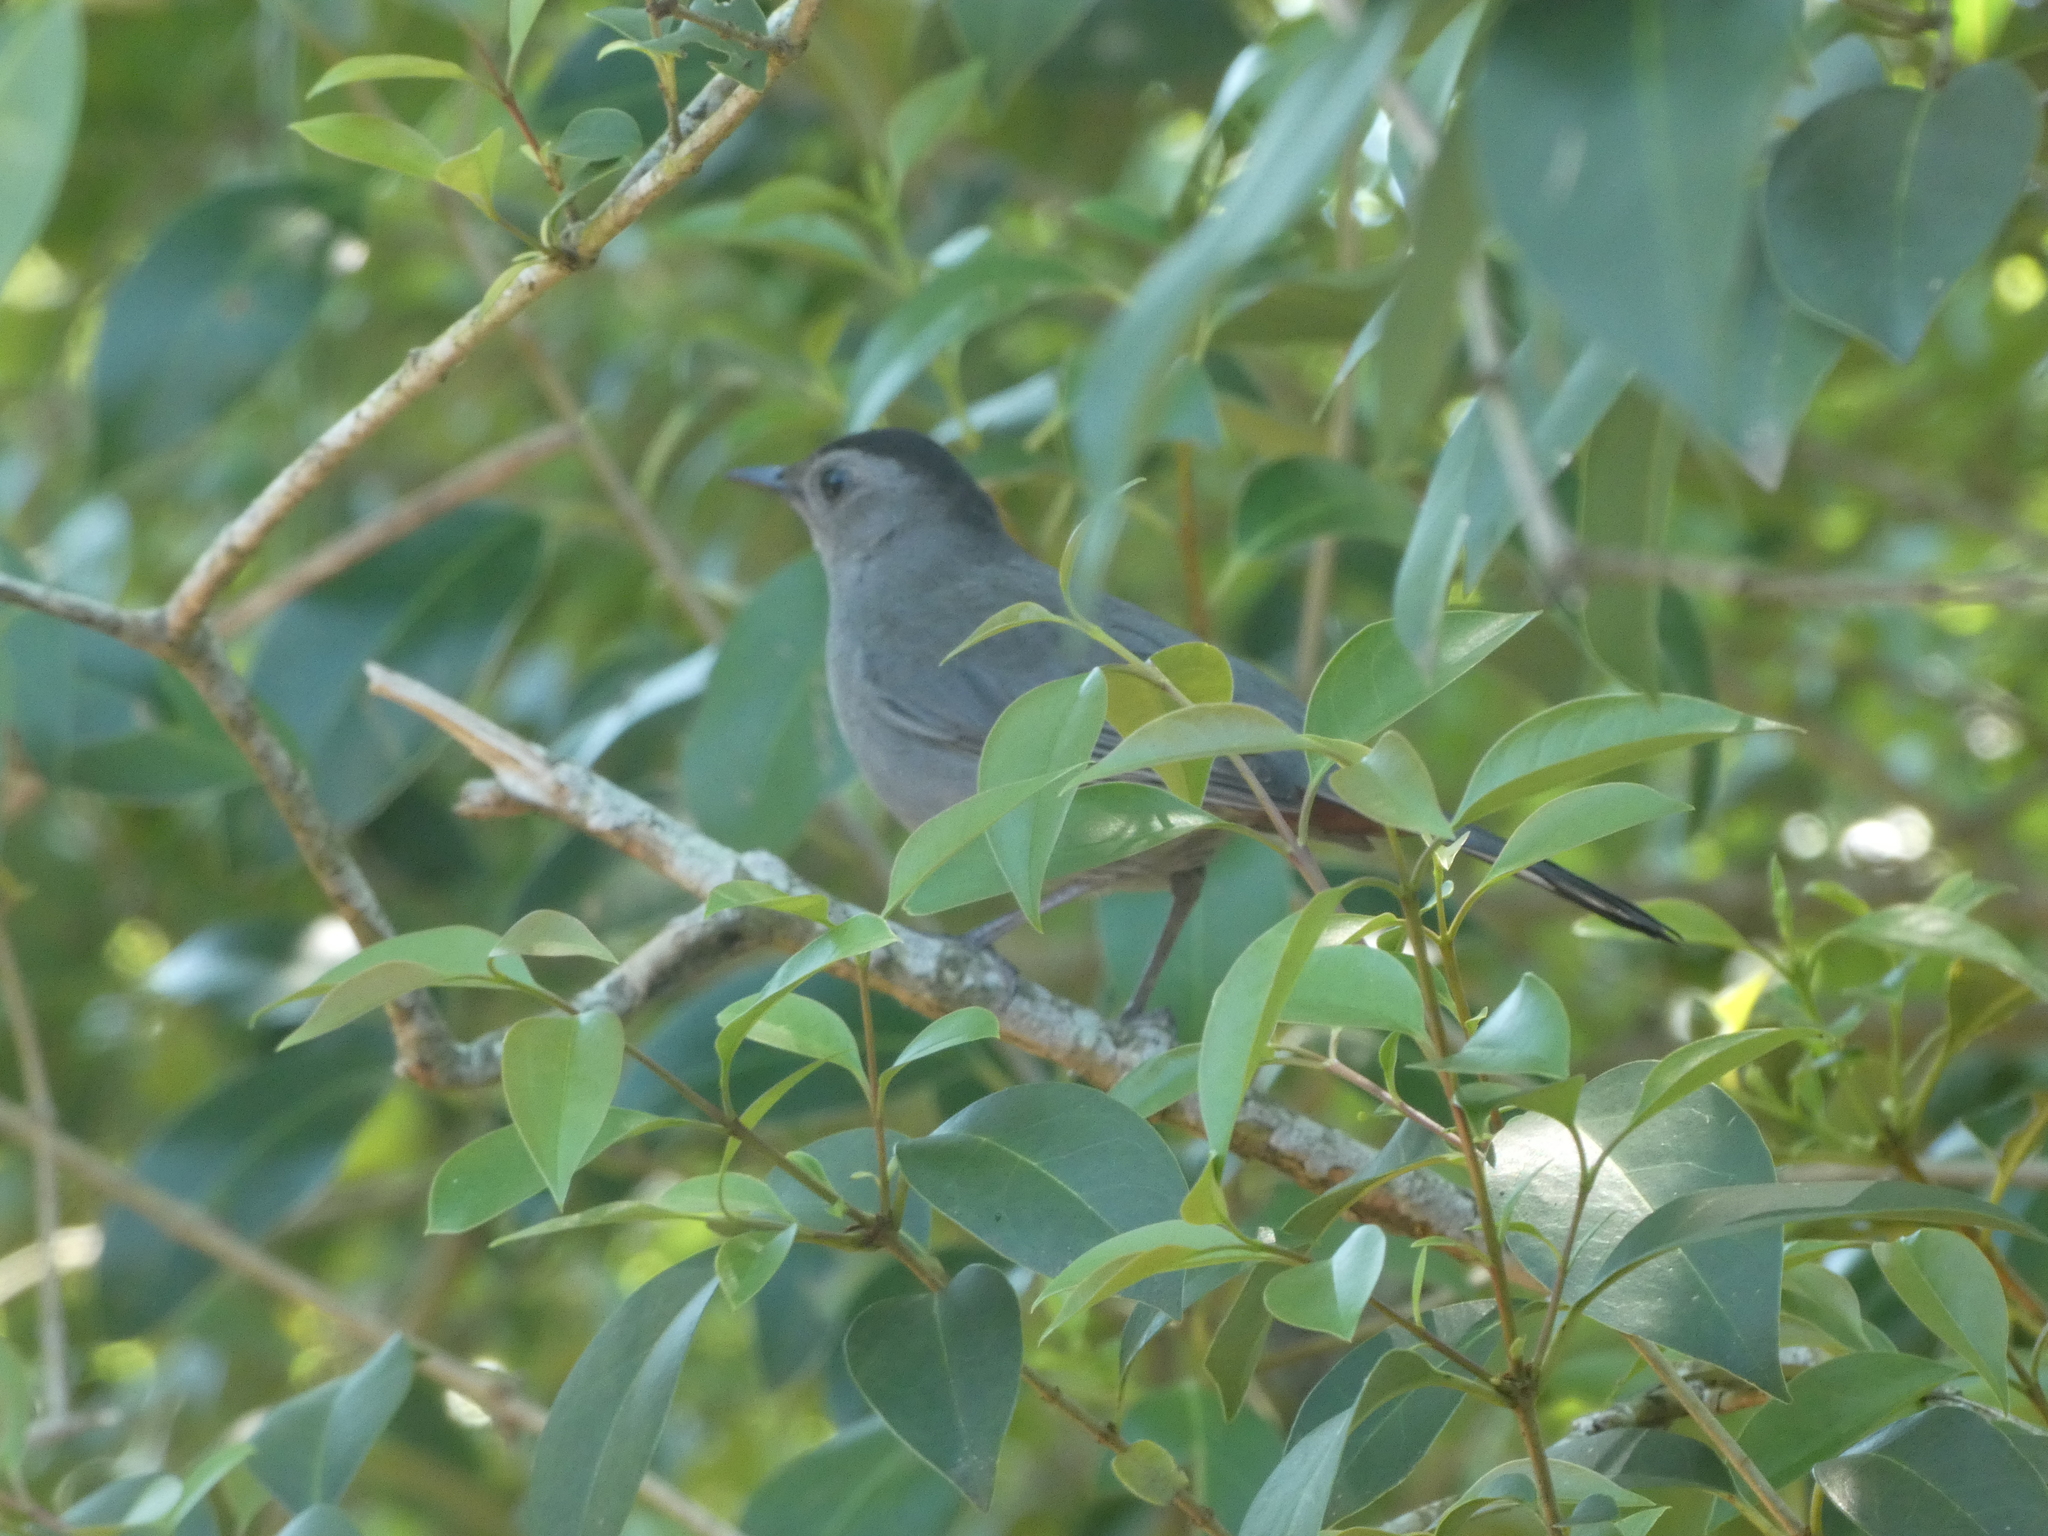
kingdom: Animalia
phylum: Chordata
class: Aves
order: Passeriformes
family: Mimidae
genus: Dumetella
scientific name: Dumetella carolinensis
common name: Gray catbird
